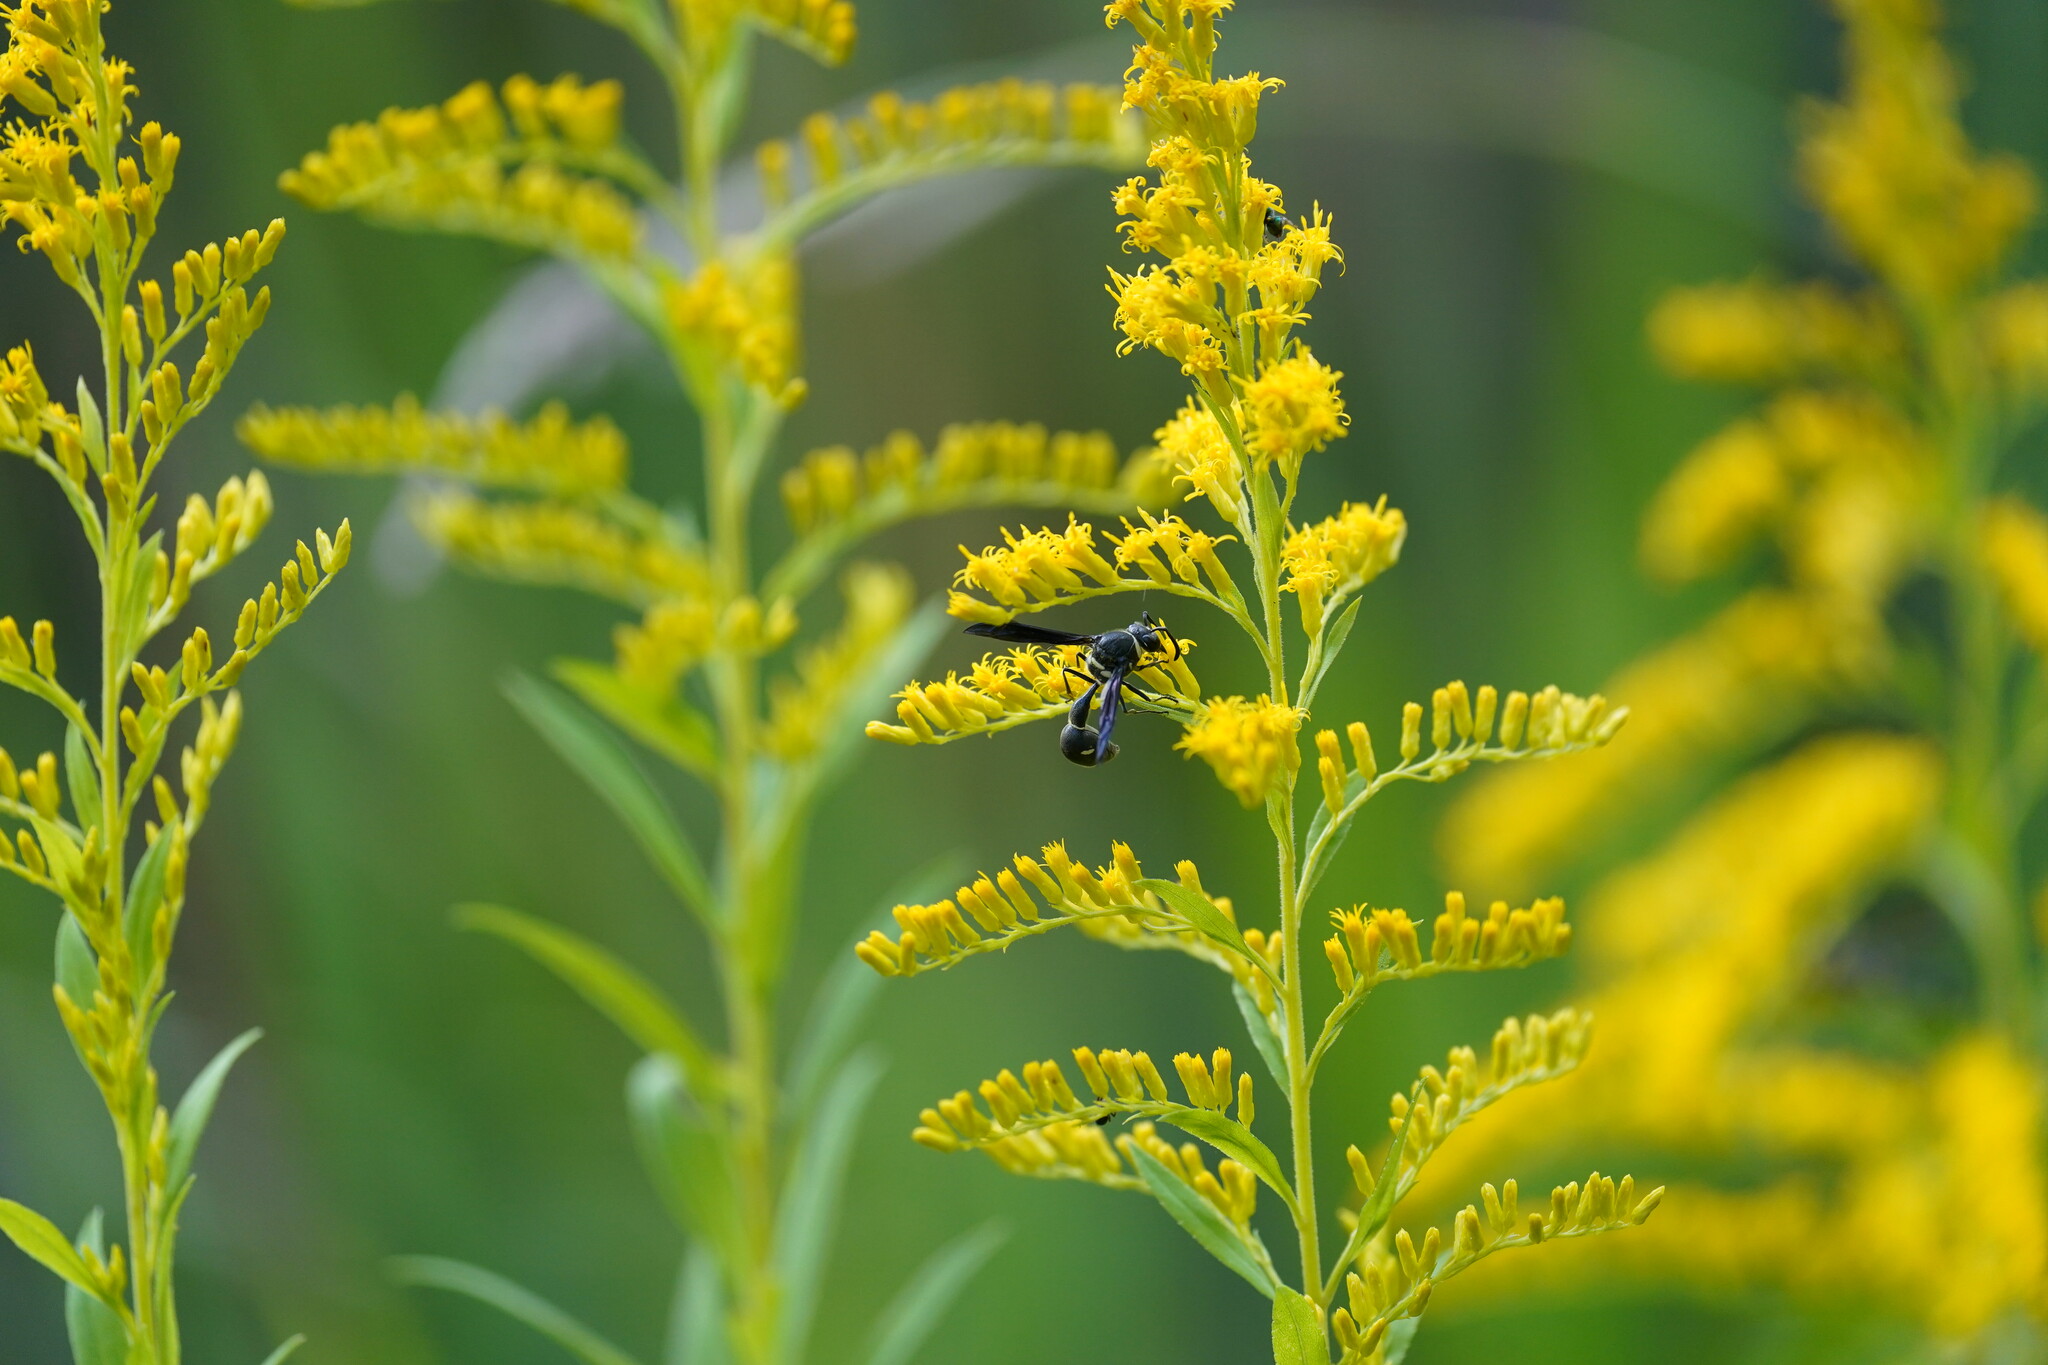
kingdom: Animalia
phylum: Arthropoda
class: Insecta
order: Hymenoptera
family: Vespidae
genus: Eumenes
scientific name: Eumenes fraternus
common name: Fraternal potter wasp
